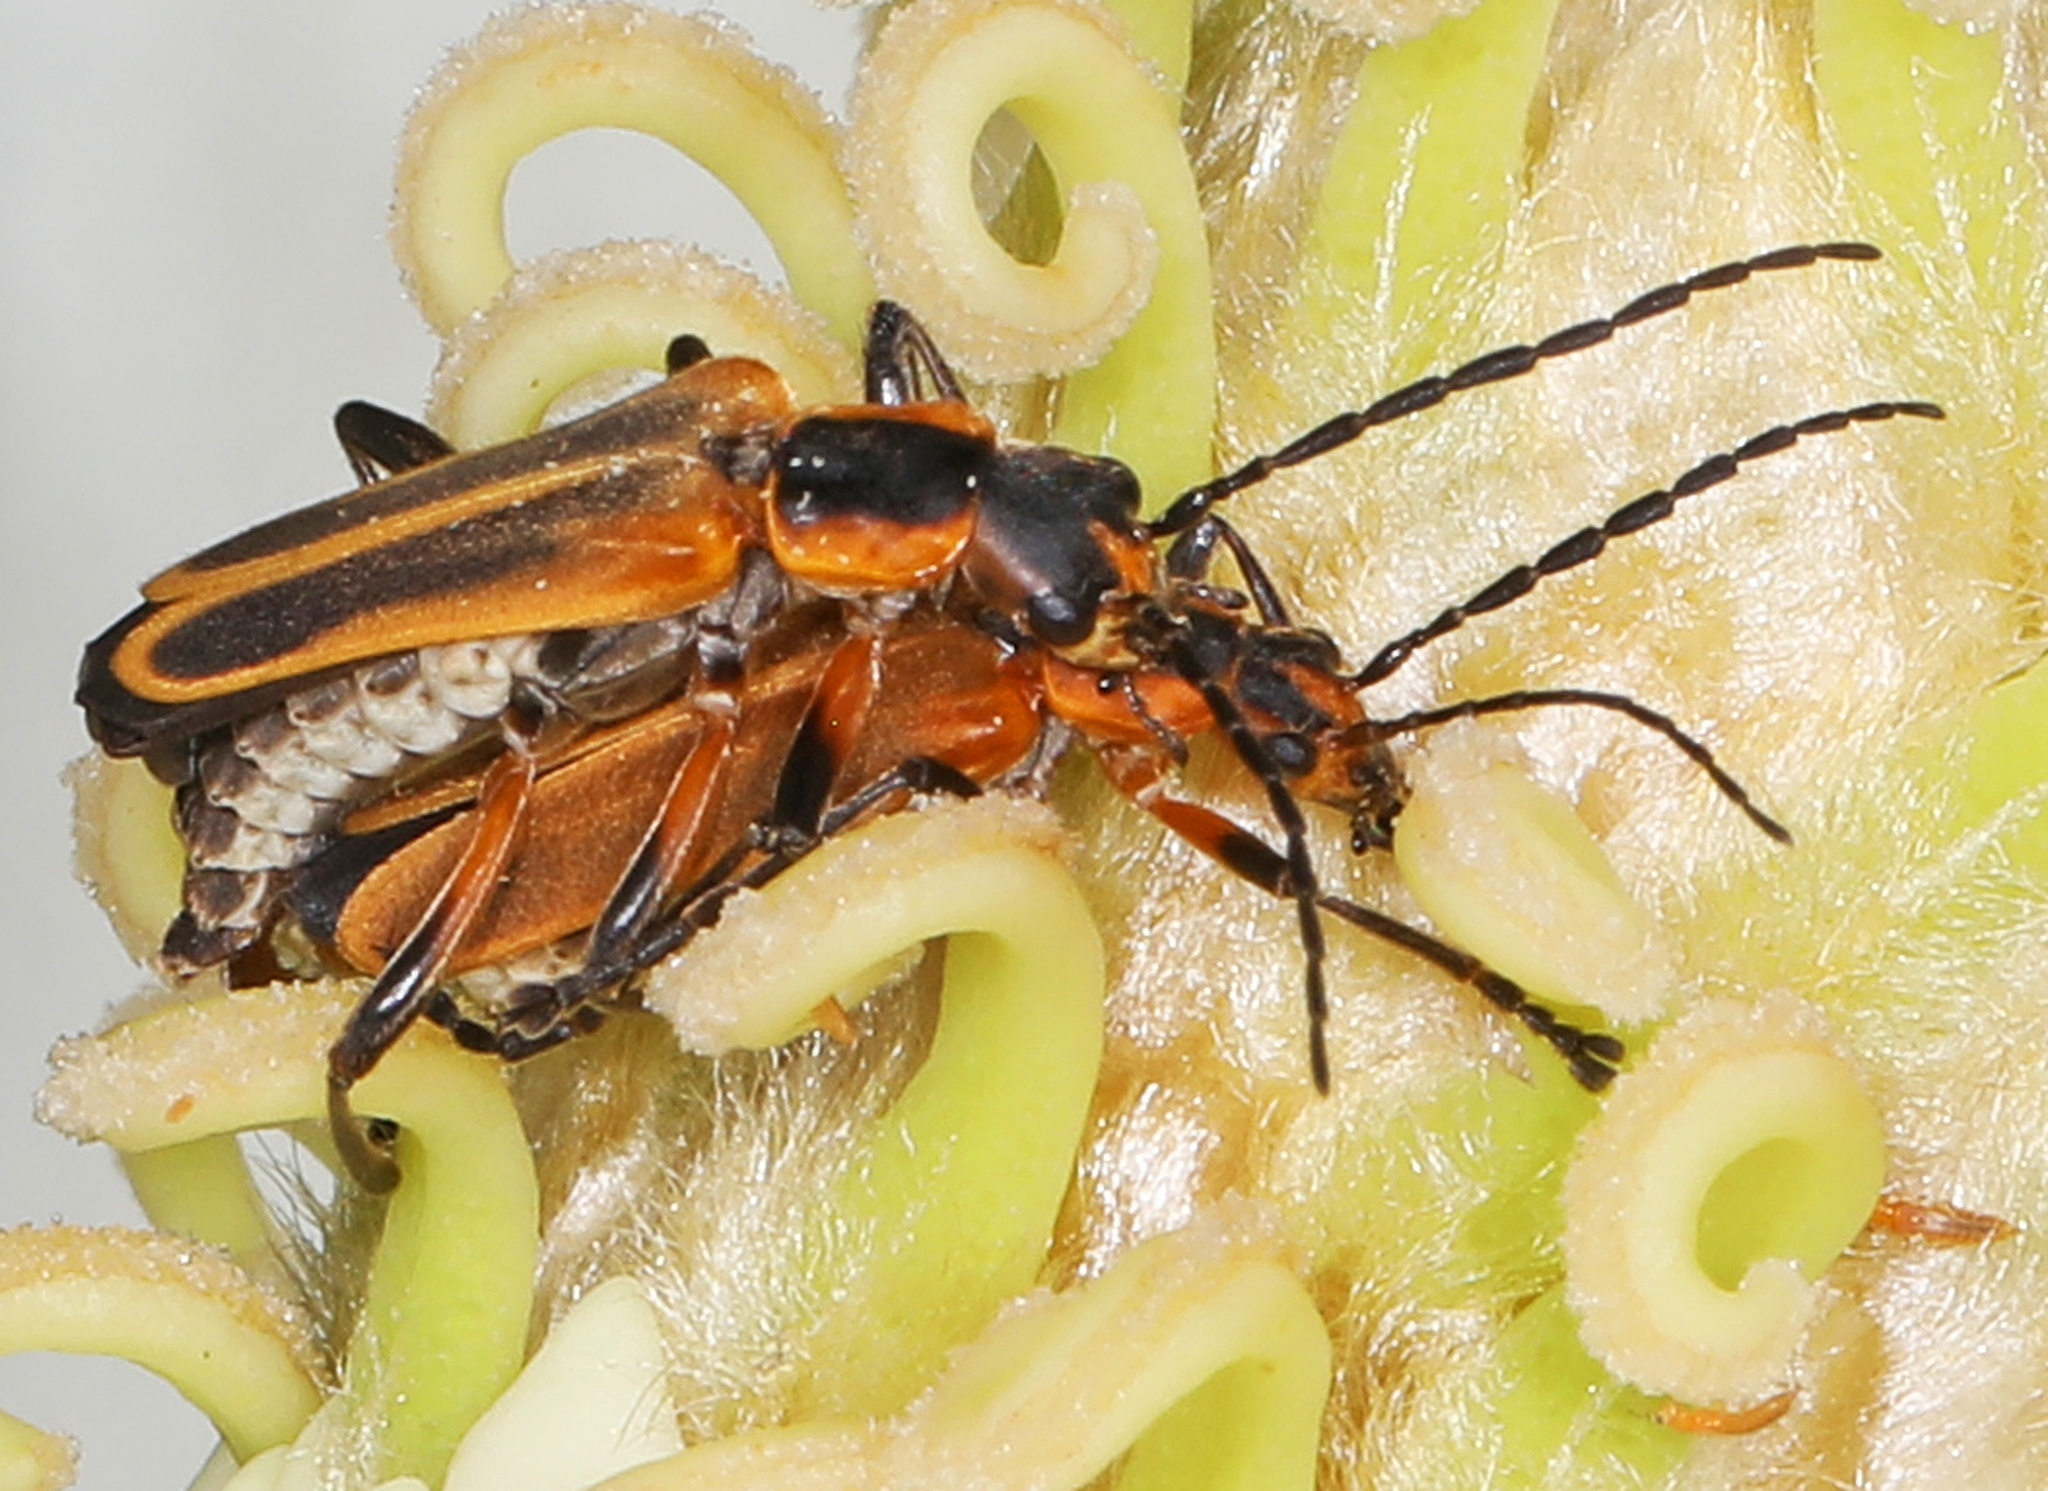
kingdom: Animalia
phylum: Arthropoda
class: Insecta
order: Coleoptera
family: Cantharidae
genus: Chauliognathus
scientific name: Chauliognathus marginatus
